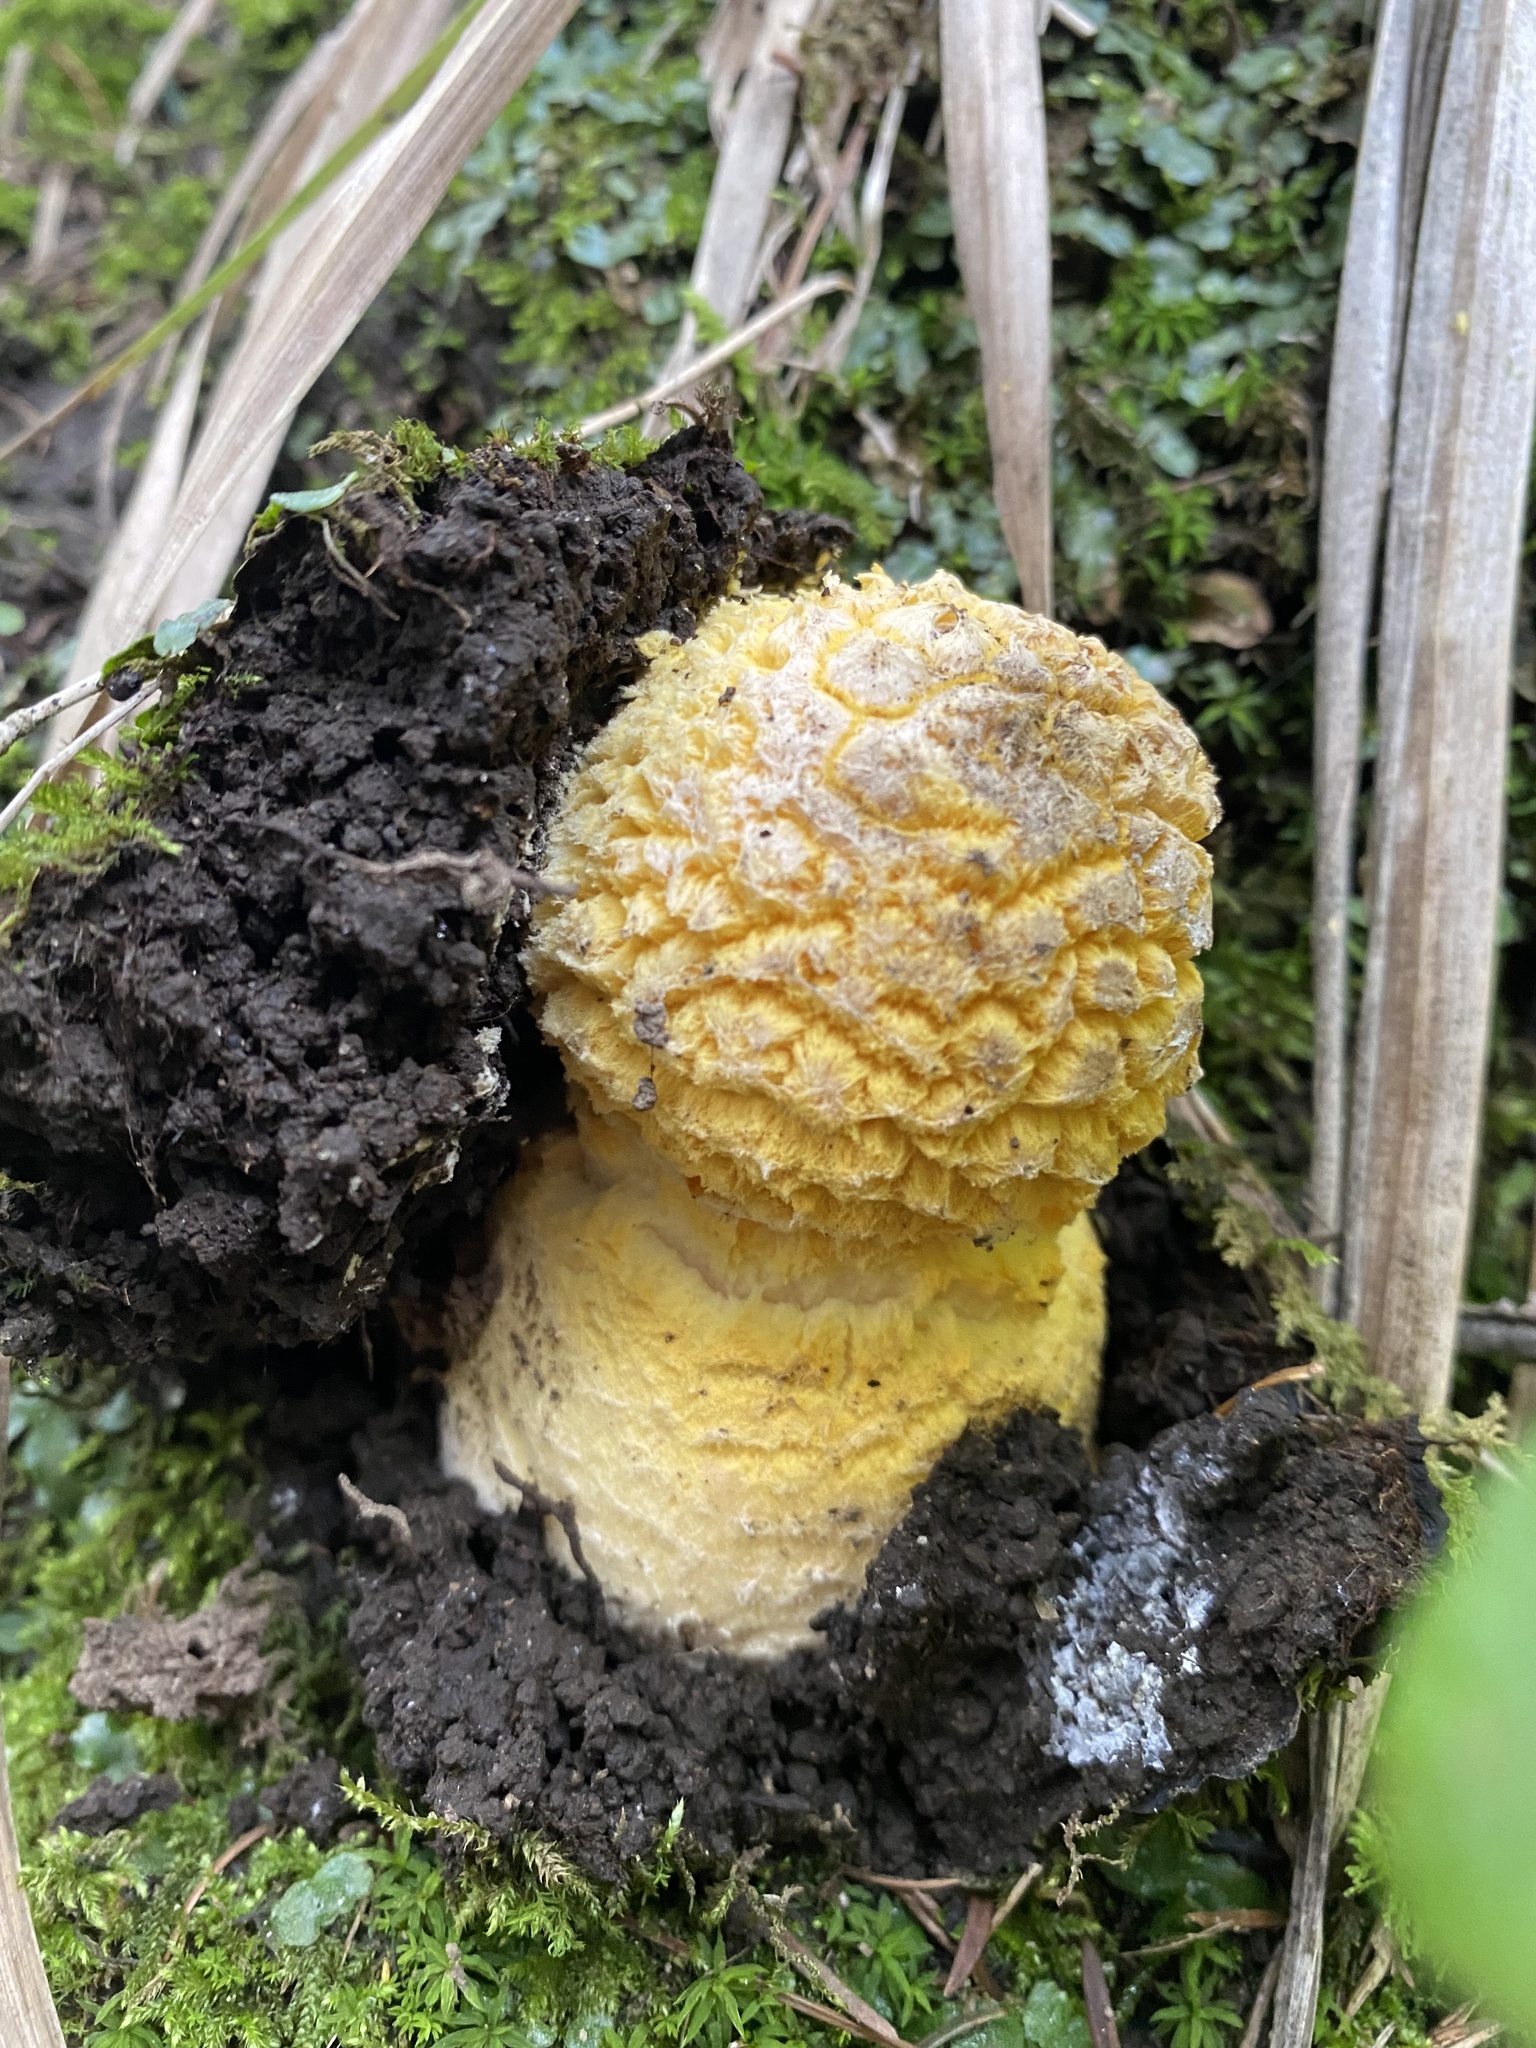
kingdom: Fungi
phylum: Basidiomycota
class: Agaricomycetes
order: Agaricales
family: Amanitaceae
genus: Amanita
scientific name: Amanita muscaria
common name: Fly agaric
